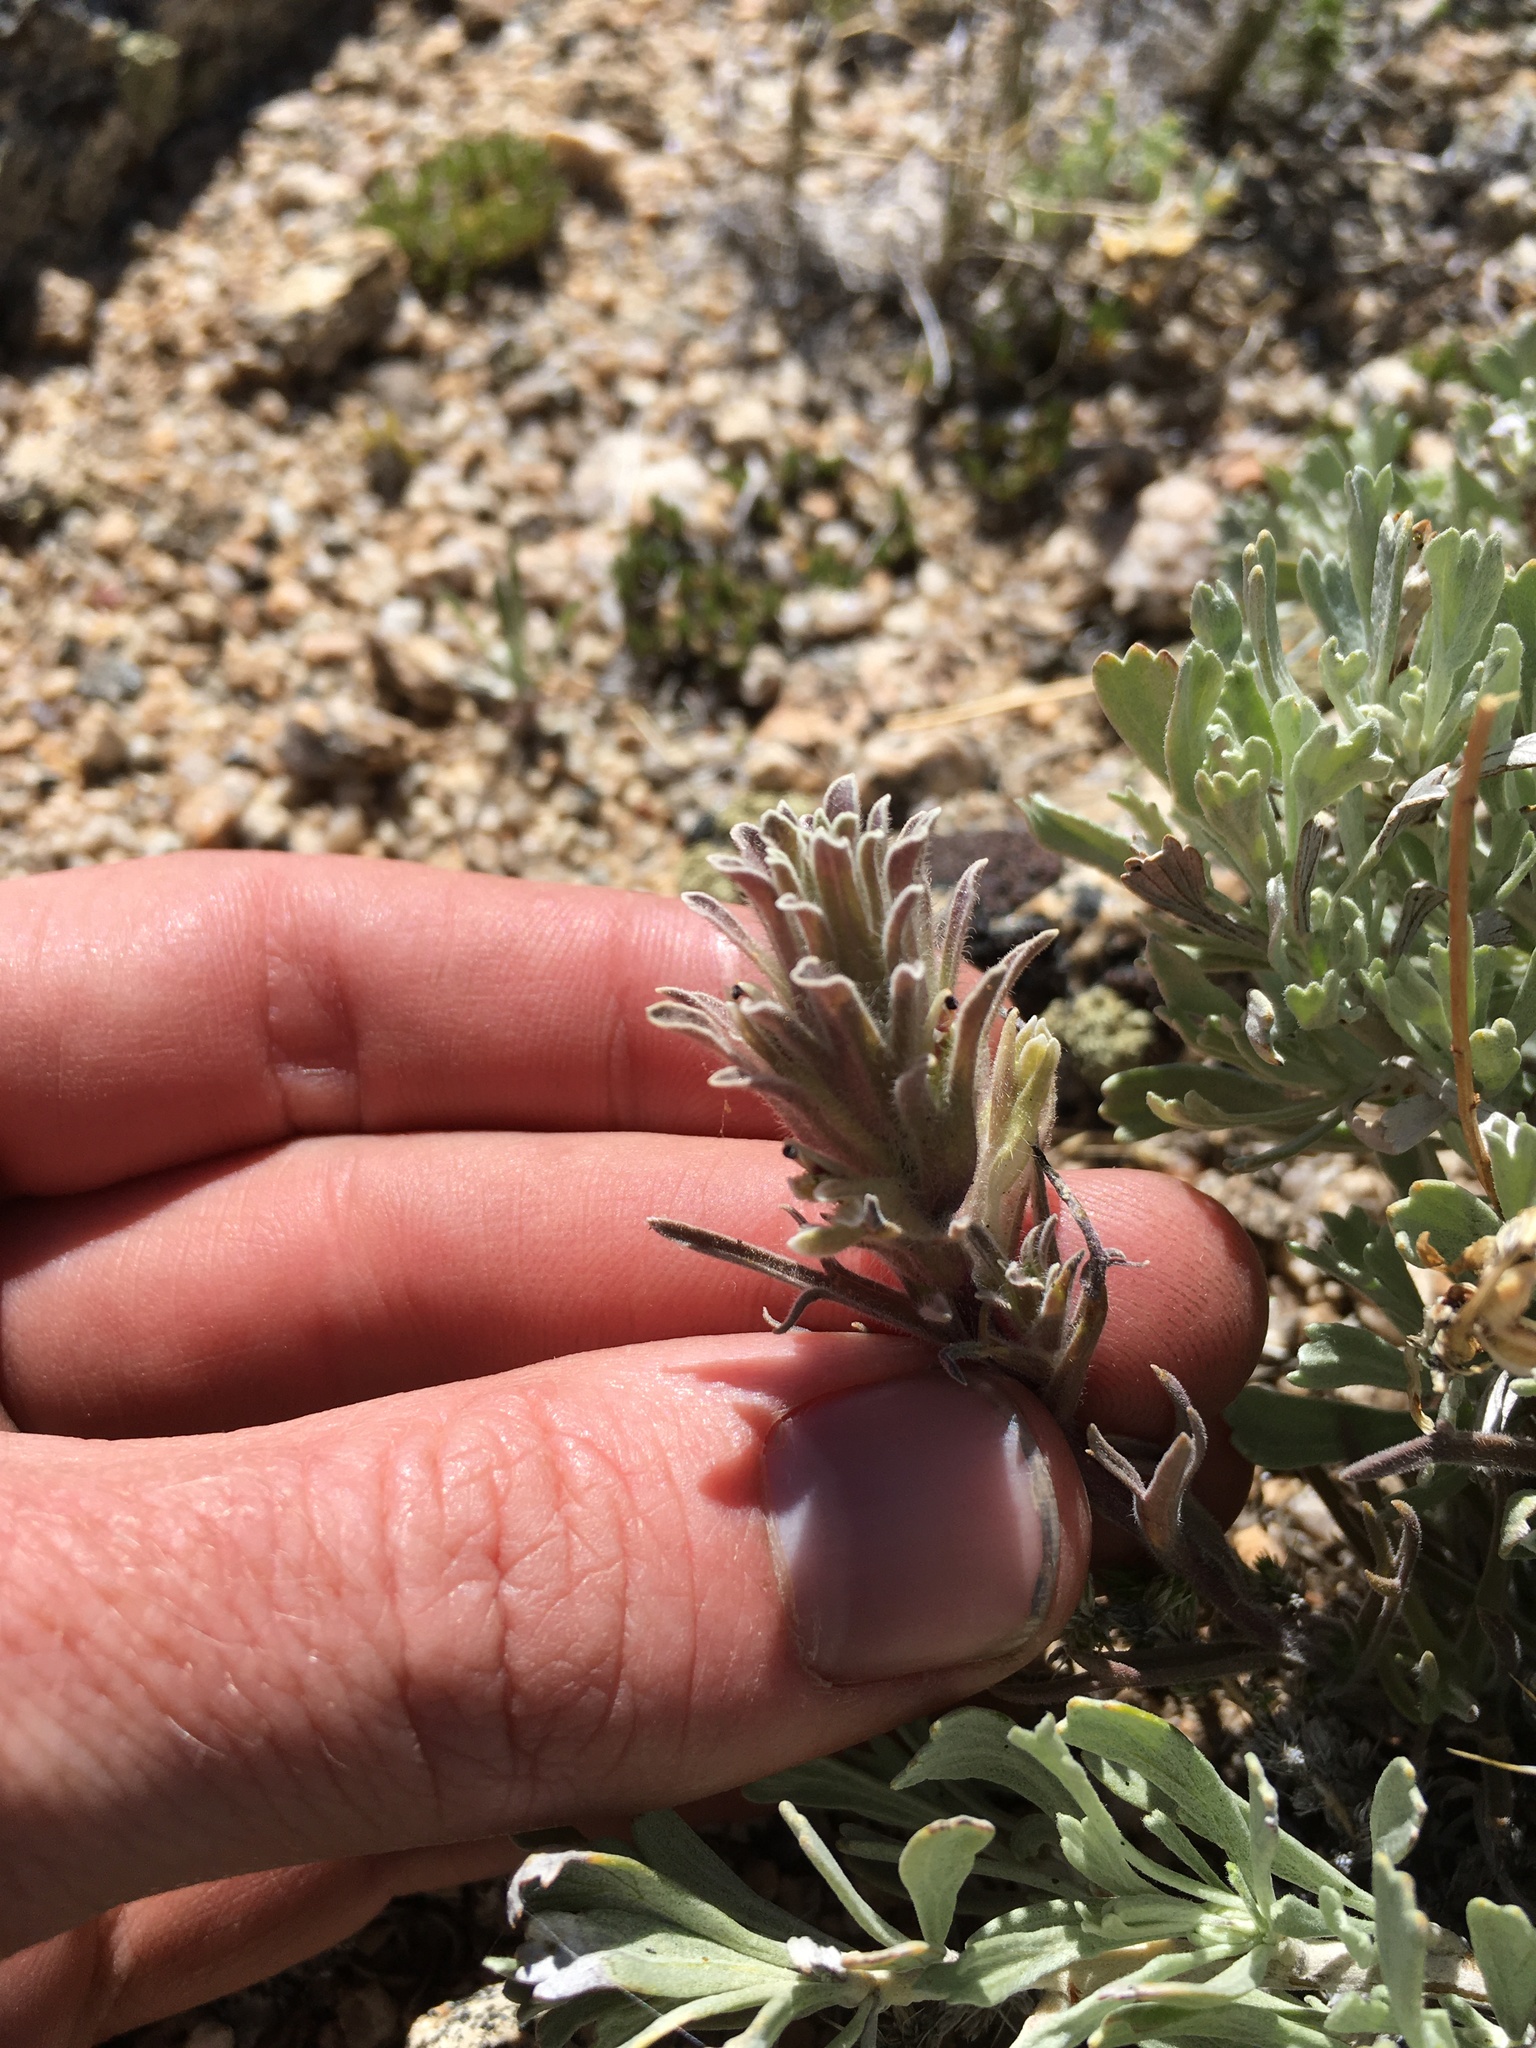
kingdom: Plantae
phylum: Tracheophyta
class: Magnoliopsida
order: Lamiales
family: Orobanchaceae
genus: Castilleja
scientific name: Castilleja nana
